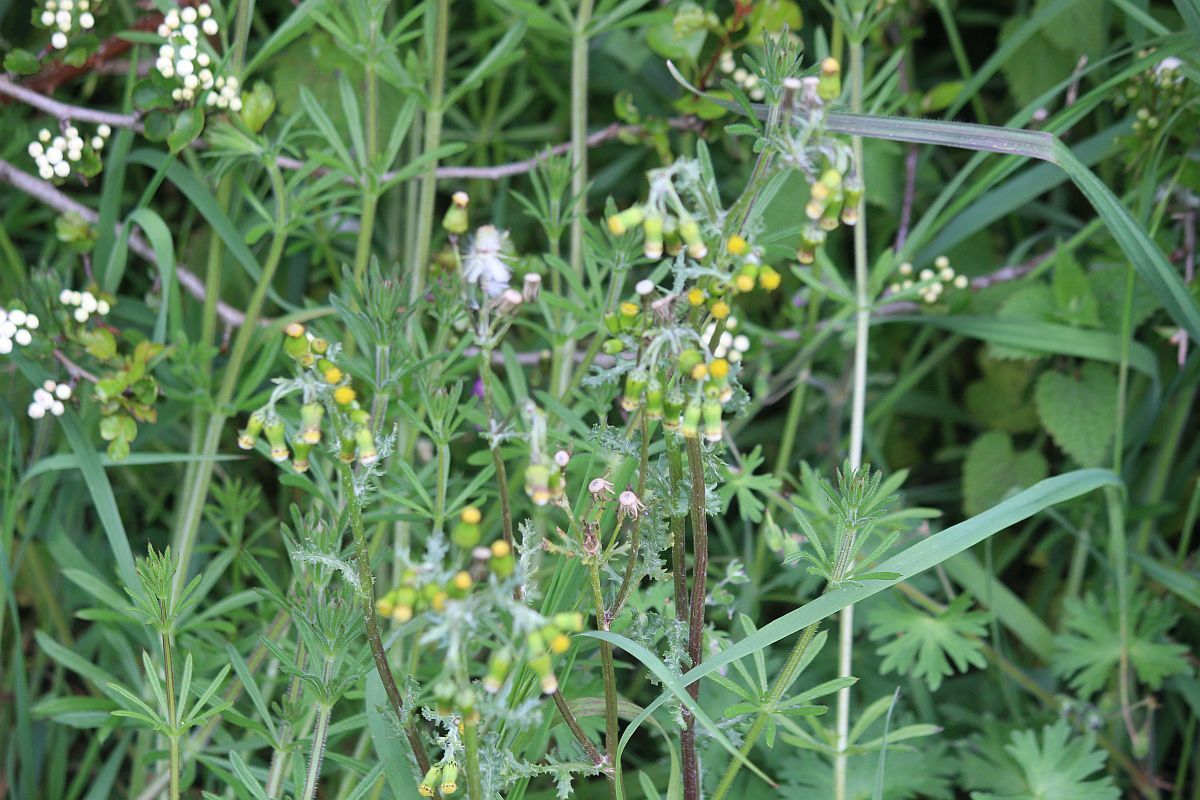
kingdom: Plantae
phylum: Tracheophyta
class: Magnoliopsida
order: Asterales
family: Asteraceae
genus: Senecio
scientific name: Senecio vulgaris
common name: Old-man-in-the-spring
